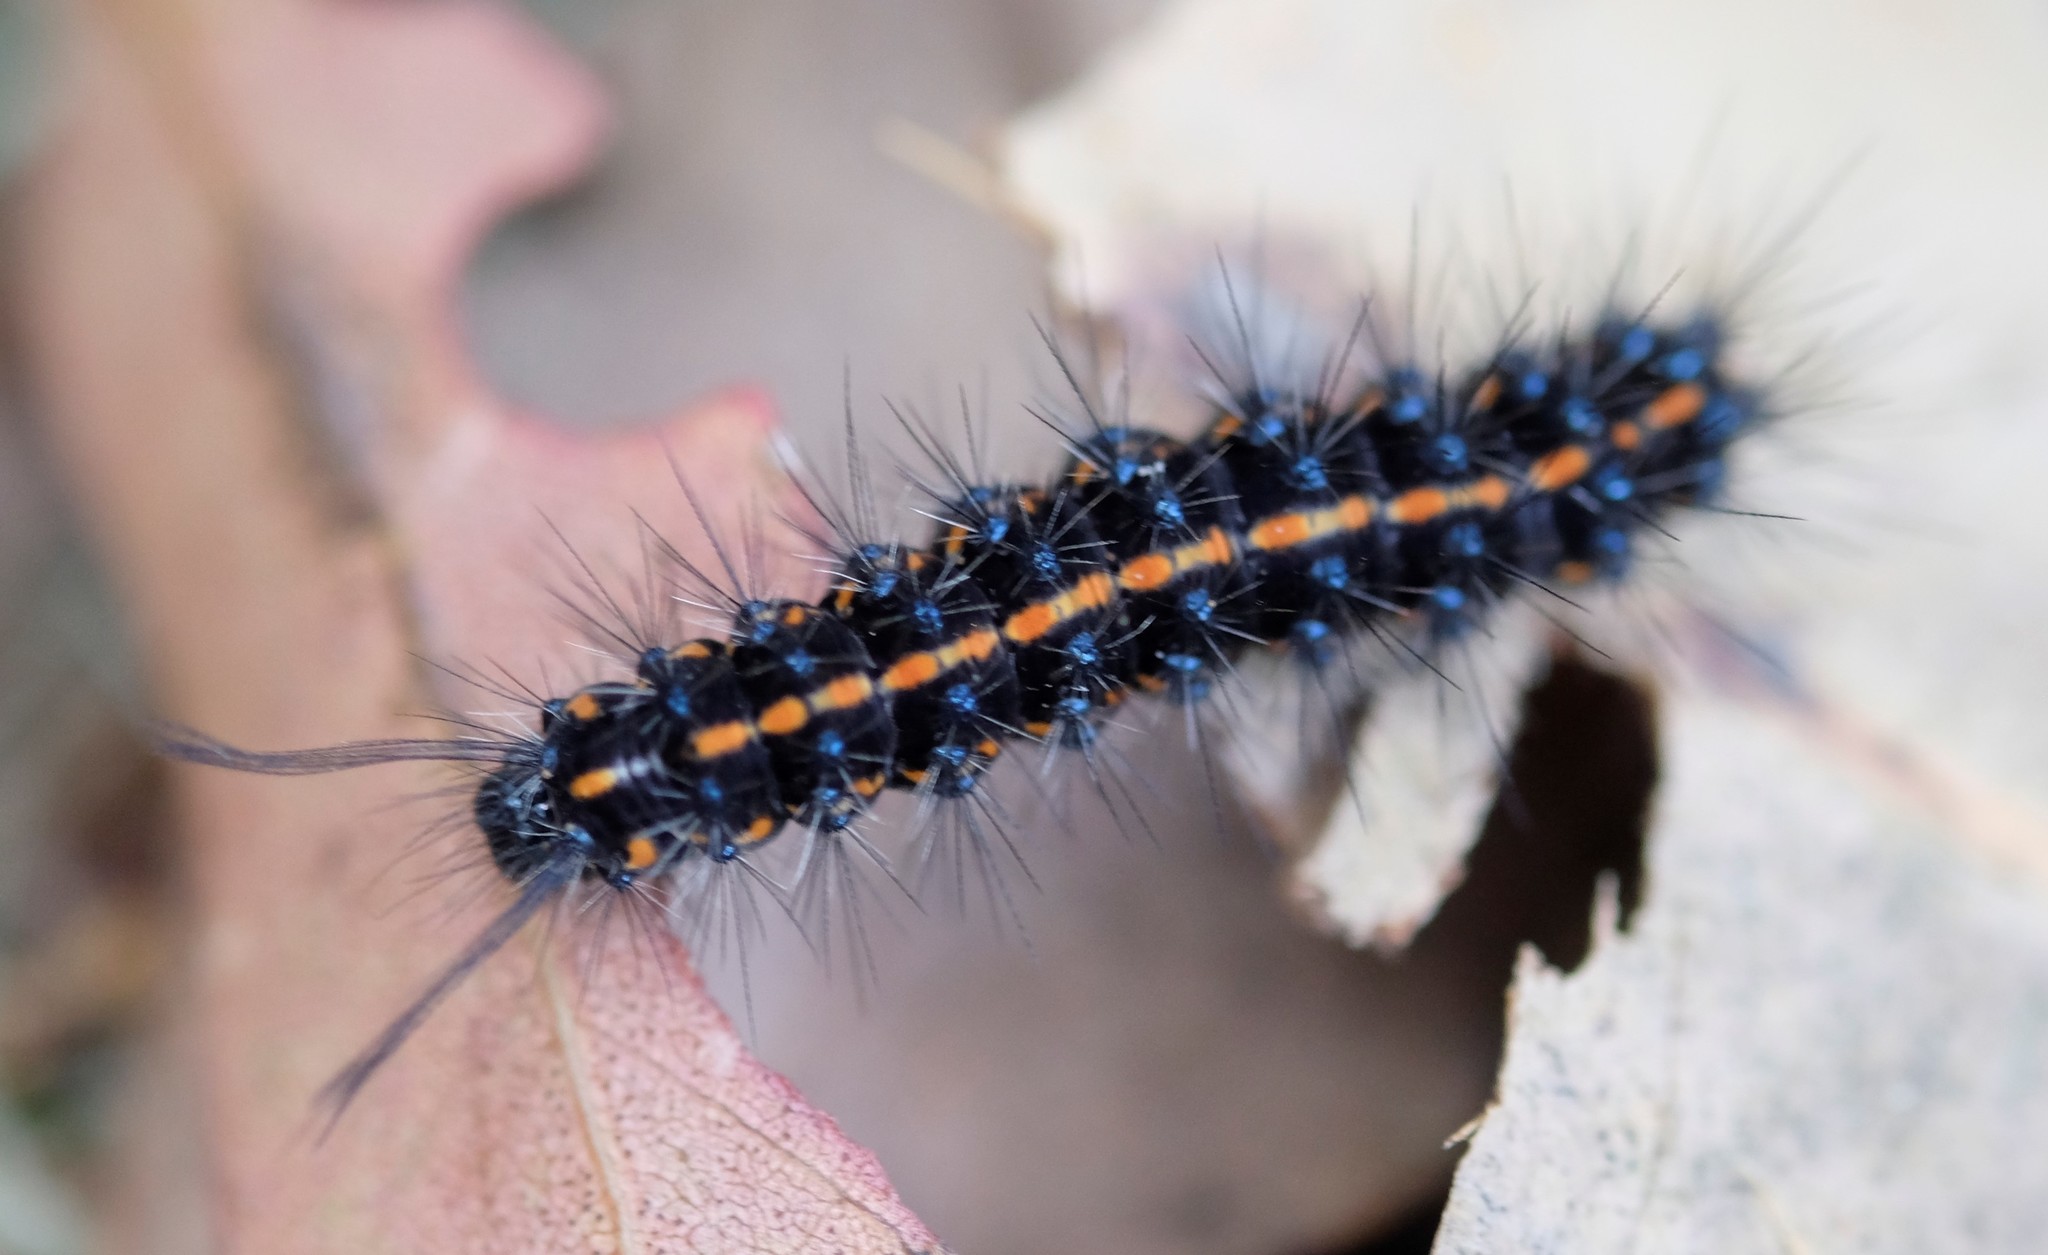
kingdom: Animalia
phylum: Arthropoda
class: Insecta
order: Lepidoptera
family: Erebidae
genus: Nyctemera
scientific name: Nyctemera amicus
